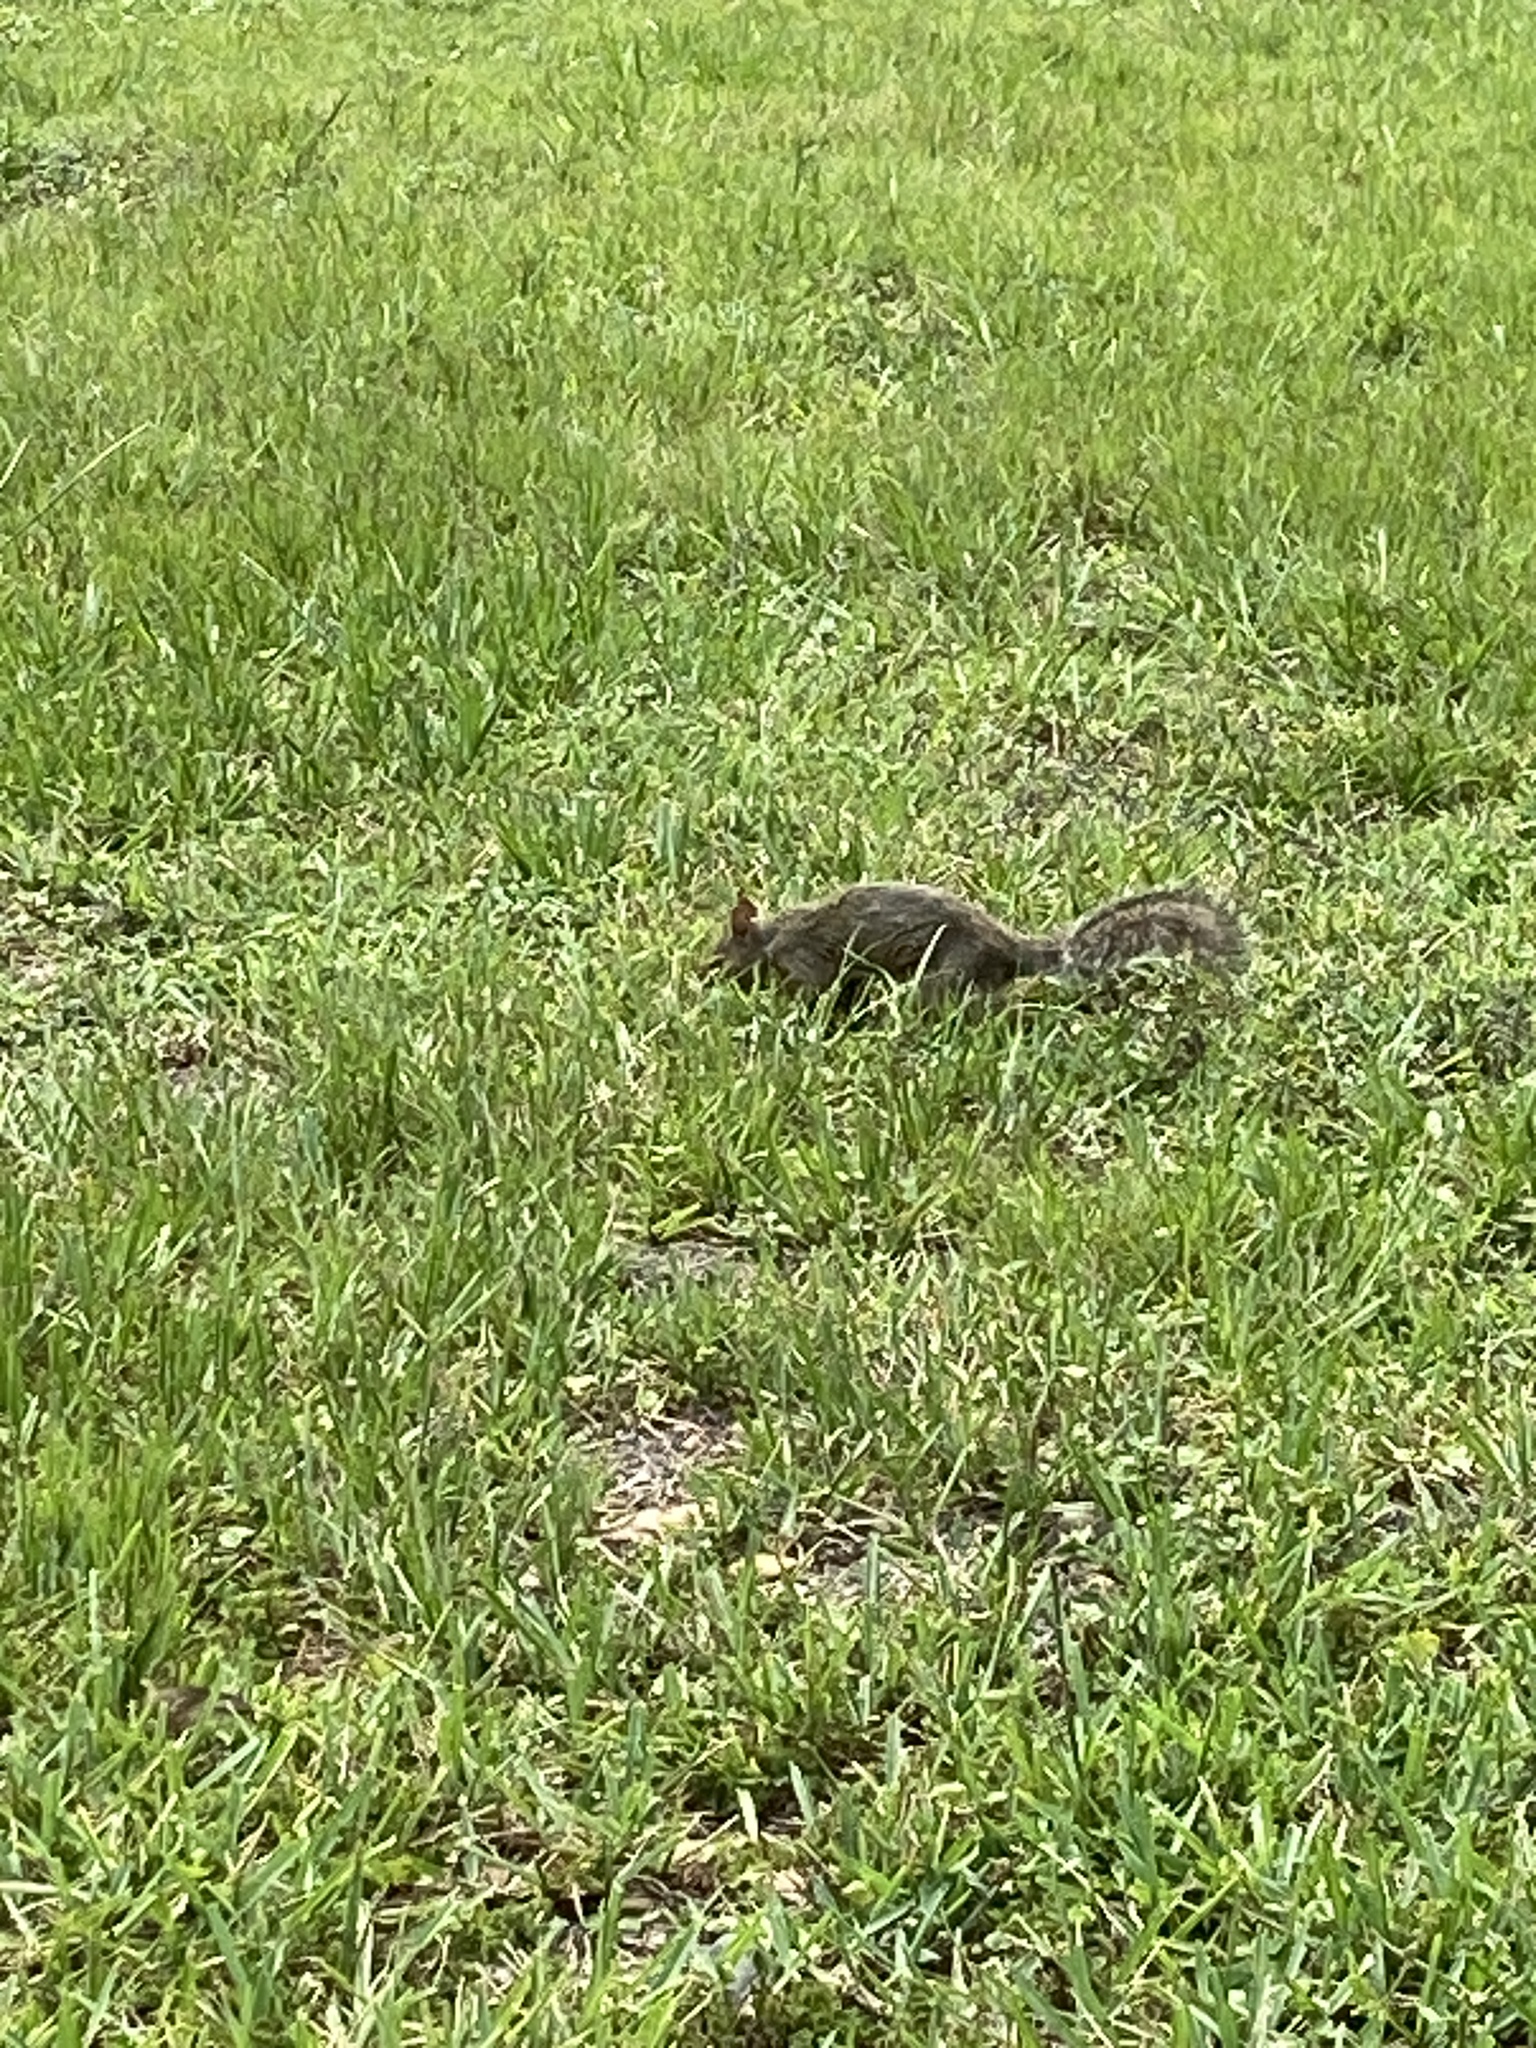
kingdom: Animalia
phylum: Chordata
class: Mammalia
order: Rodentia
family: Sciuridae
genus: Sciurus
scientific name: Sciurus carolinensis
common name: Eastern gray squirrel
